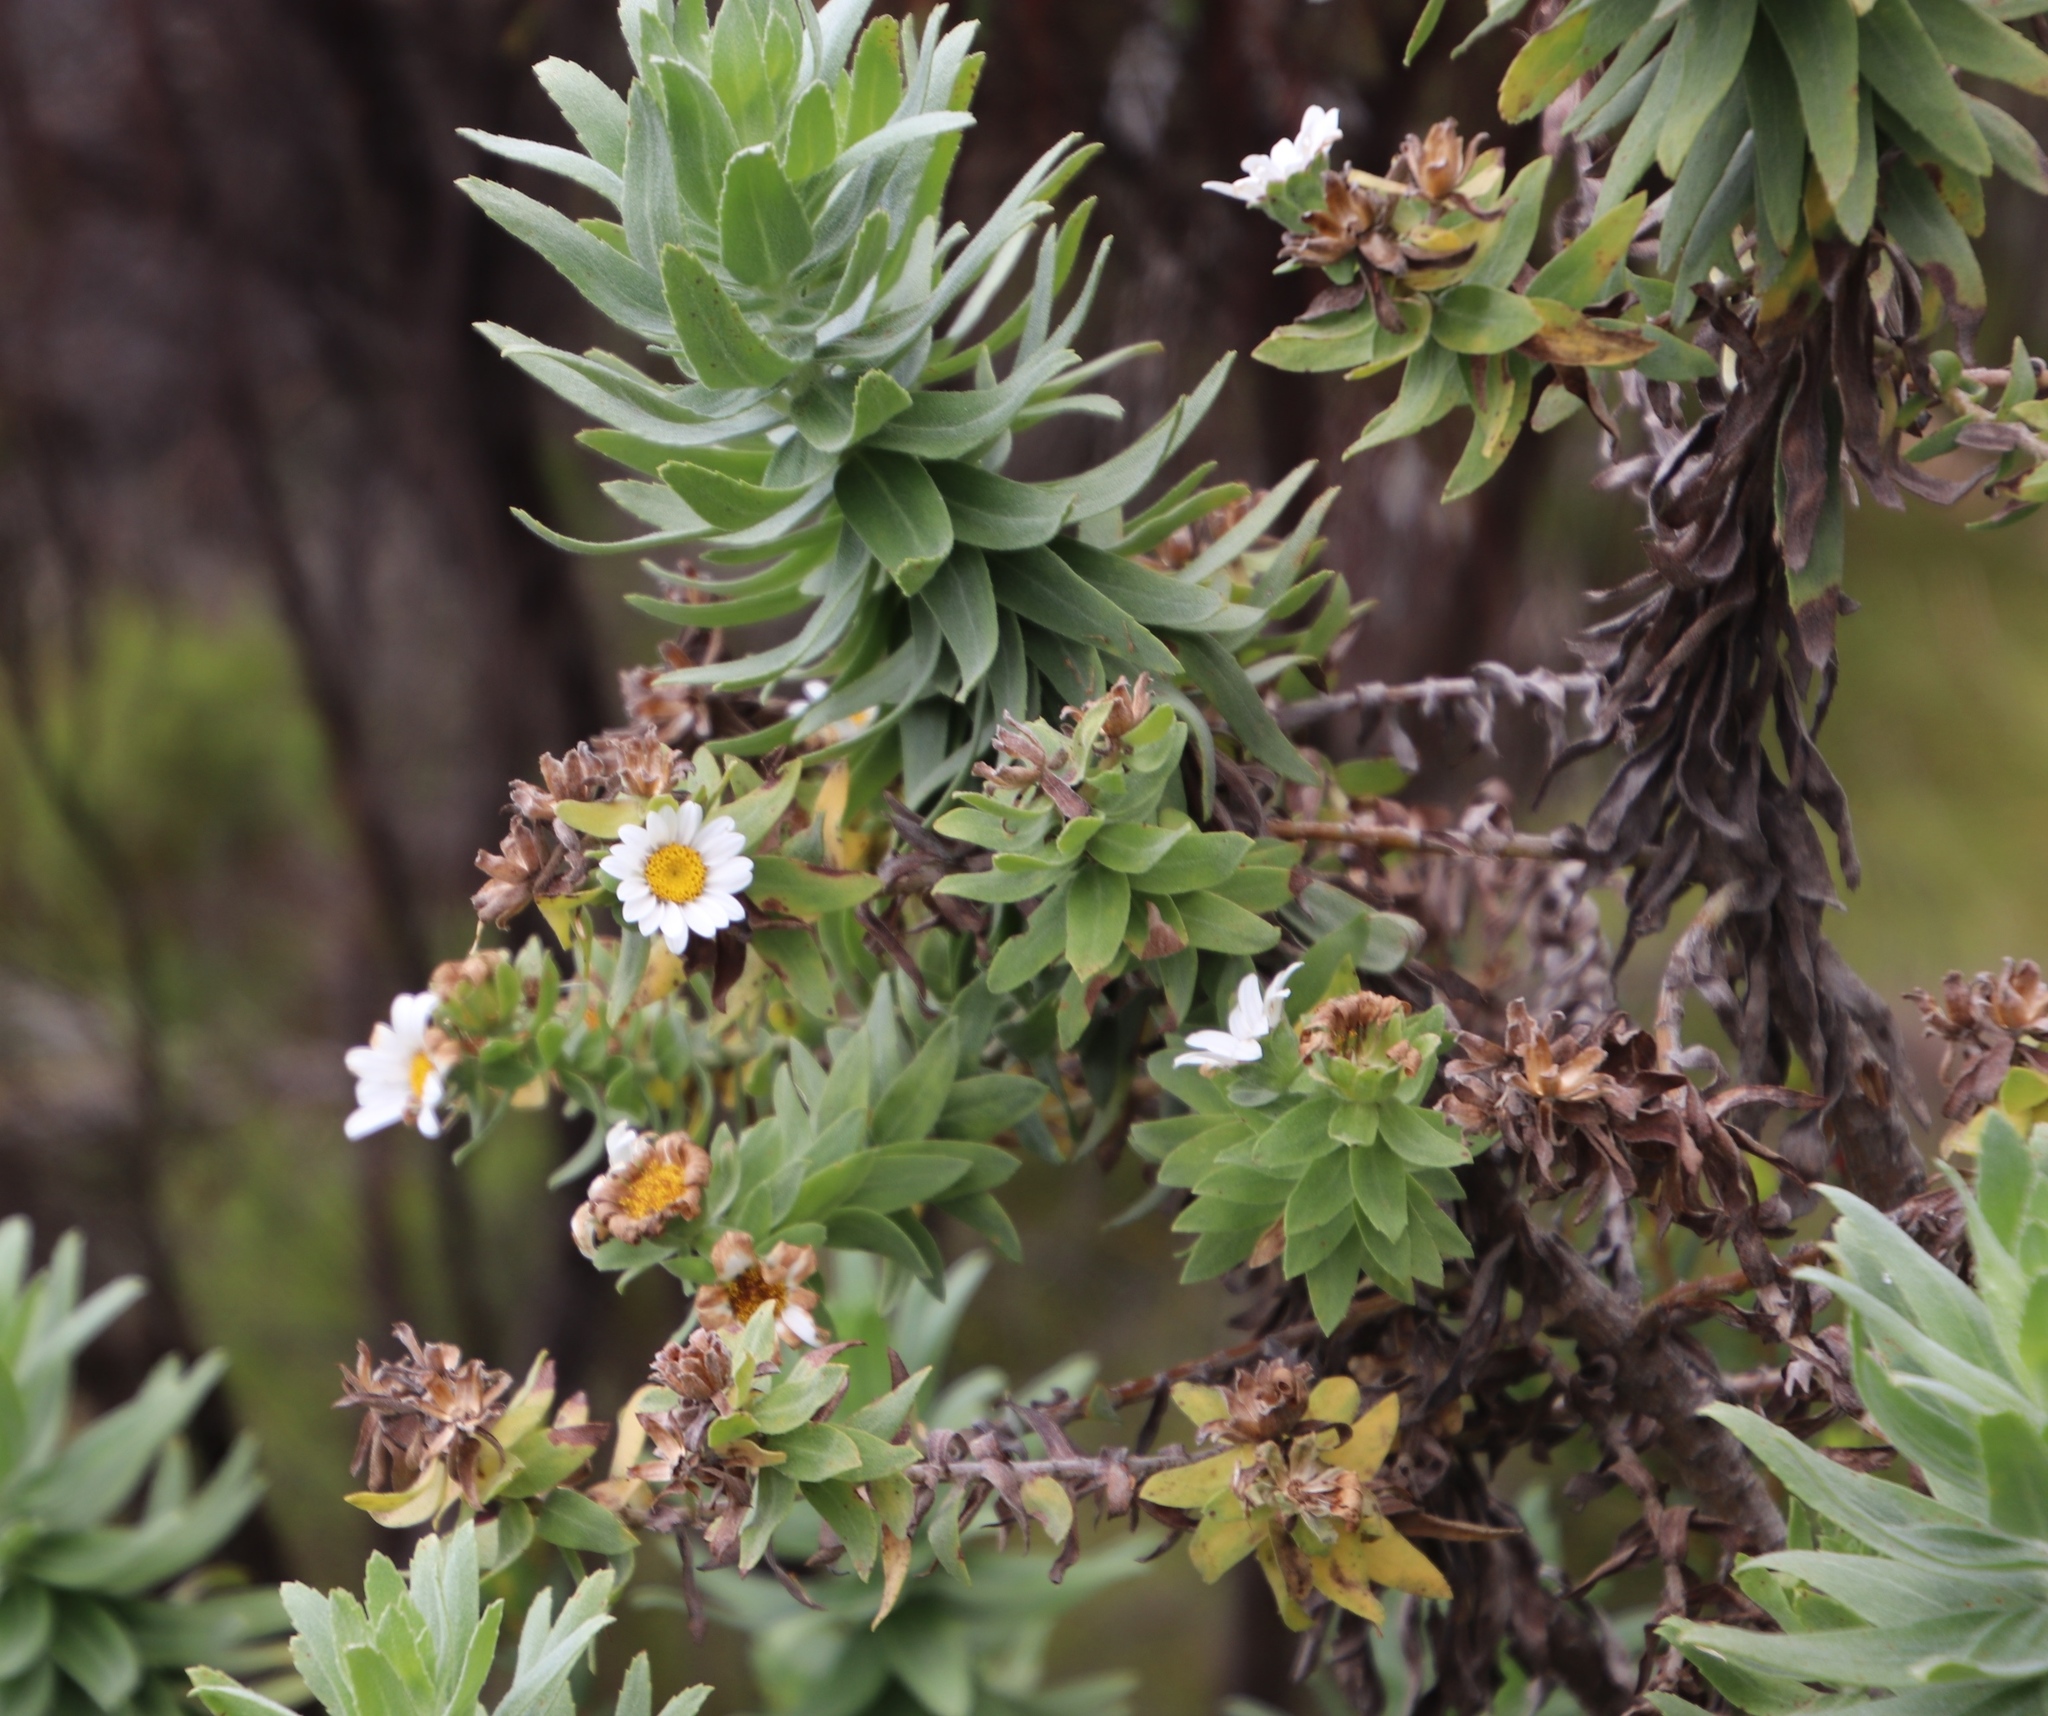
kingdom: Plantae
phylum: Tracheophyta
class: Magnoliopsida
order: Asterales
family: Asteraceae
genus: Osmitopsis
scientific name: Osmitopsis asteriscoides
